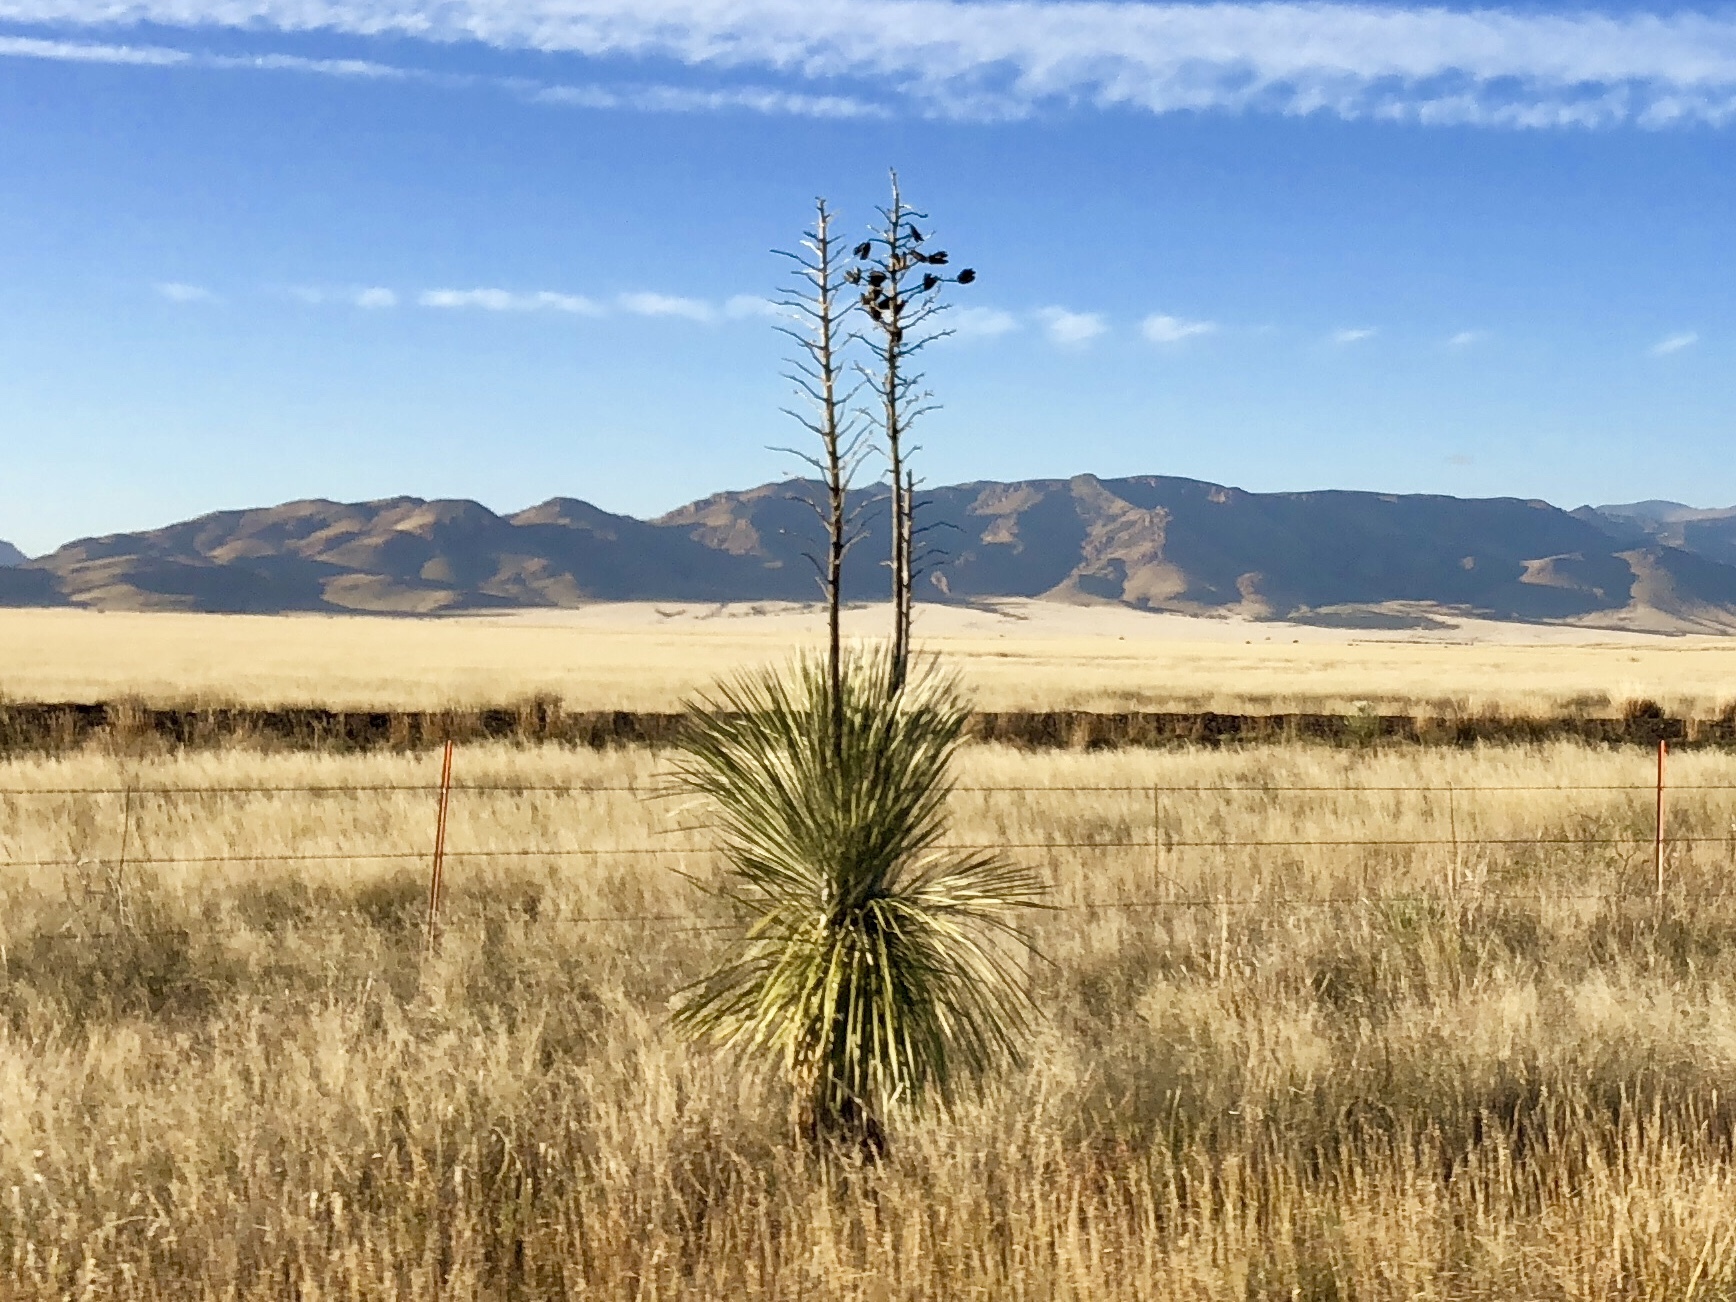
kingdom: Plantae
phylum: Tracheophyta
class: Liliopsida
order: Asparagales
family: Asparagaceae
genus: Yucca
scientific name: Yucca elata
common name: Palmella
